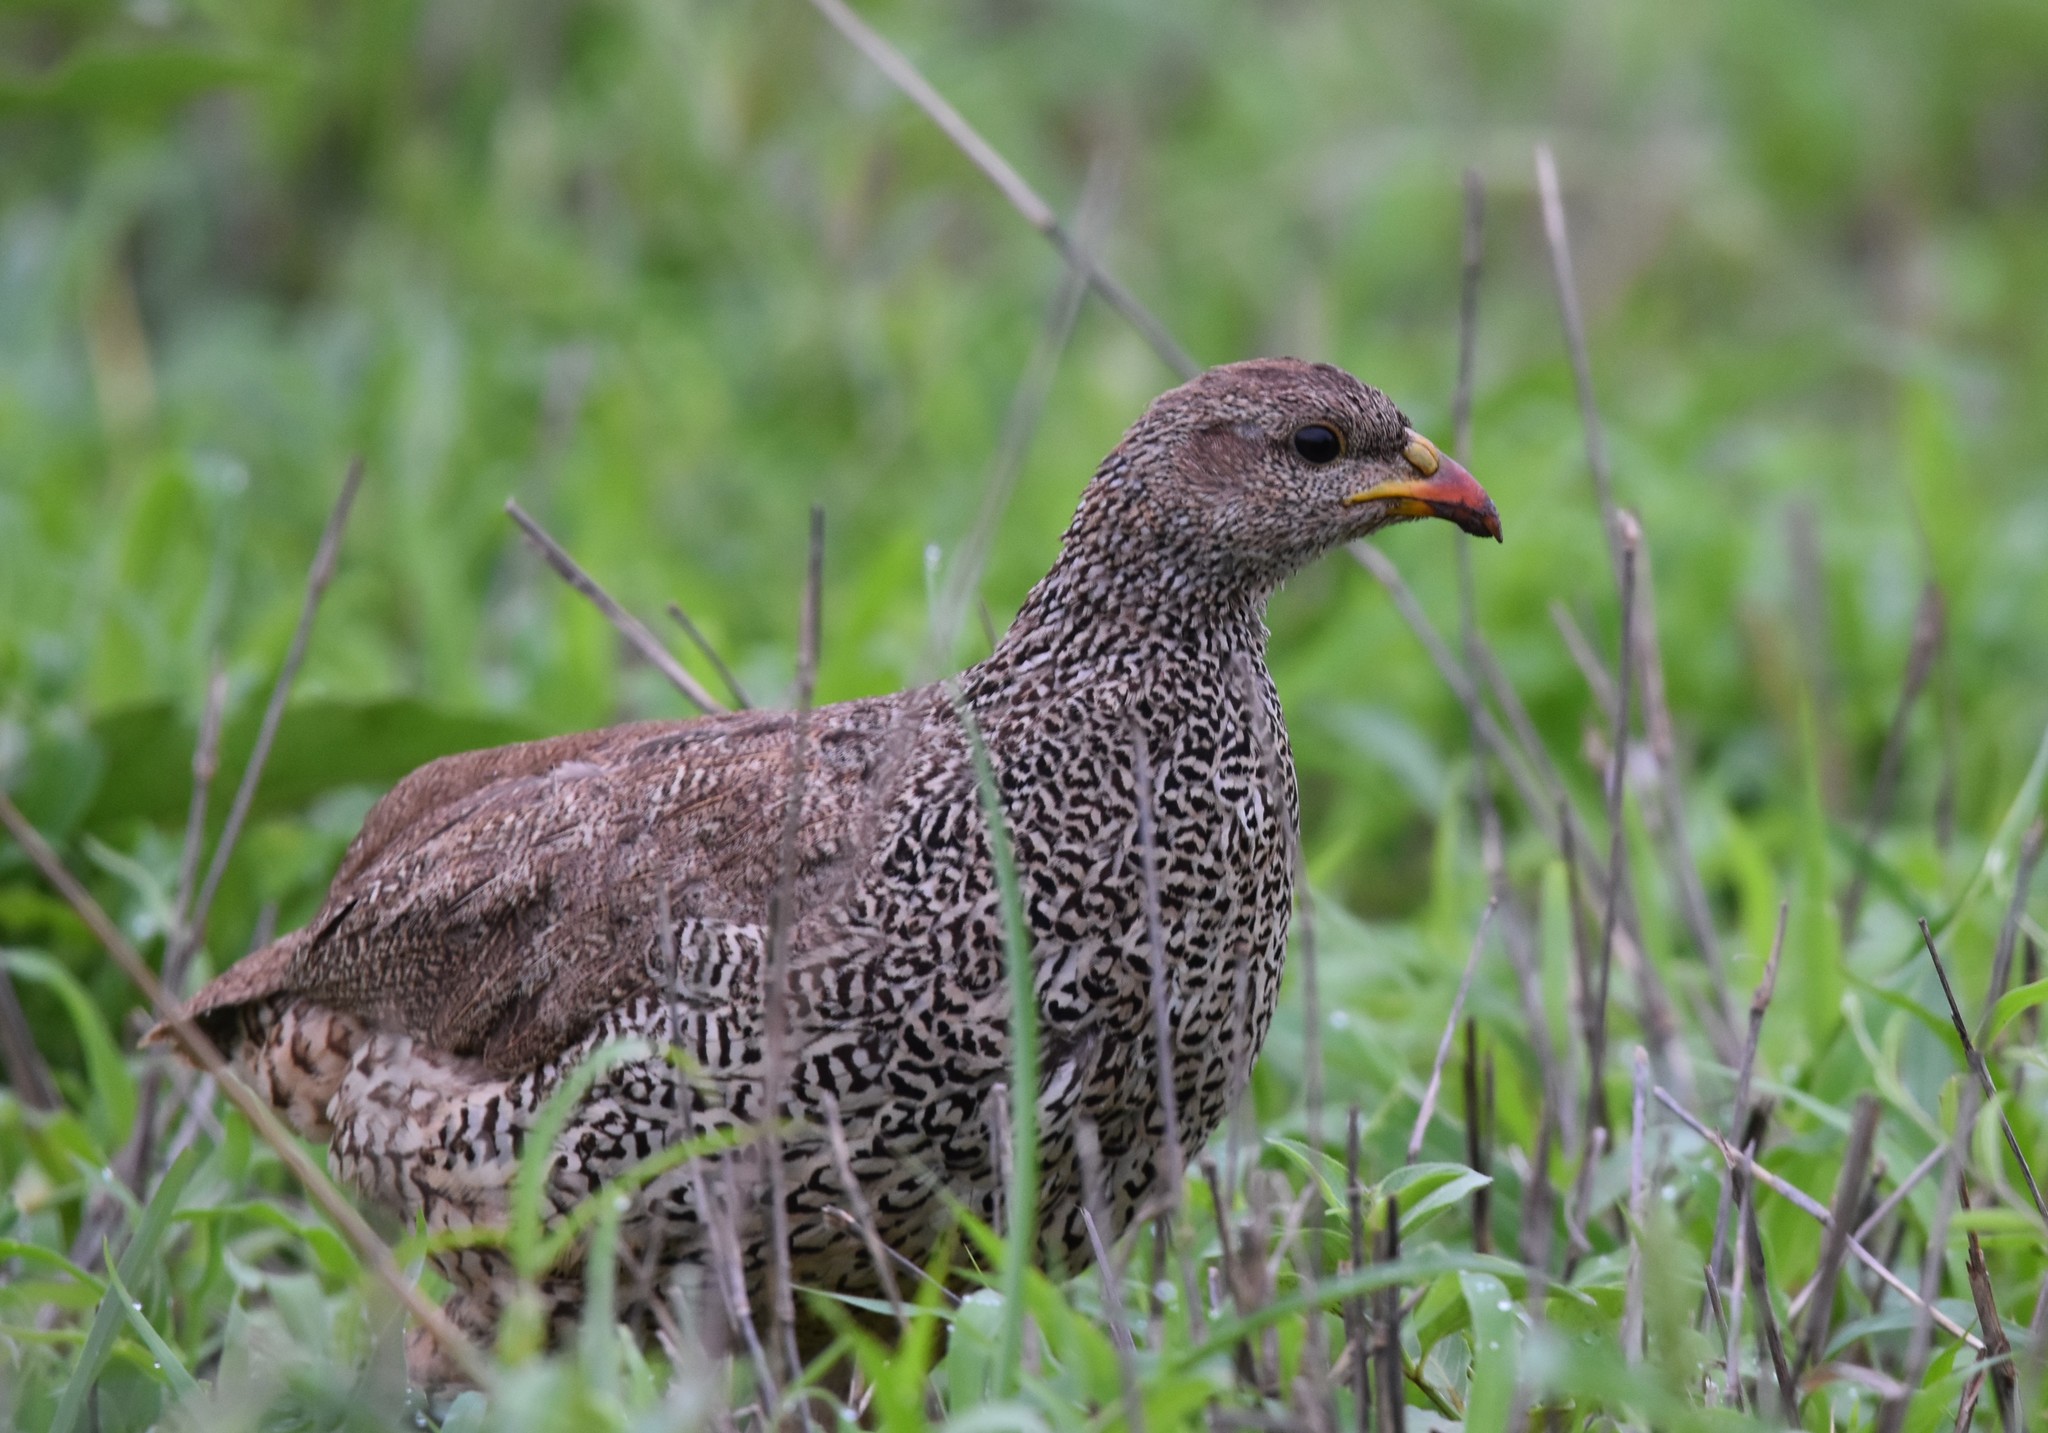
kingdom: Animalia
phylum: Chordata
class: Aves
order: Galliformes
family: Phasianidae
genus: Pternistis
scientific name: Pternistis natalensis
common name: Natal spurfowl
